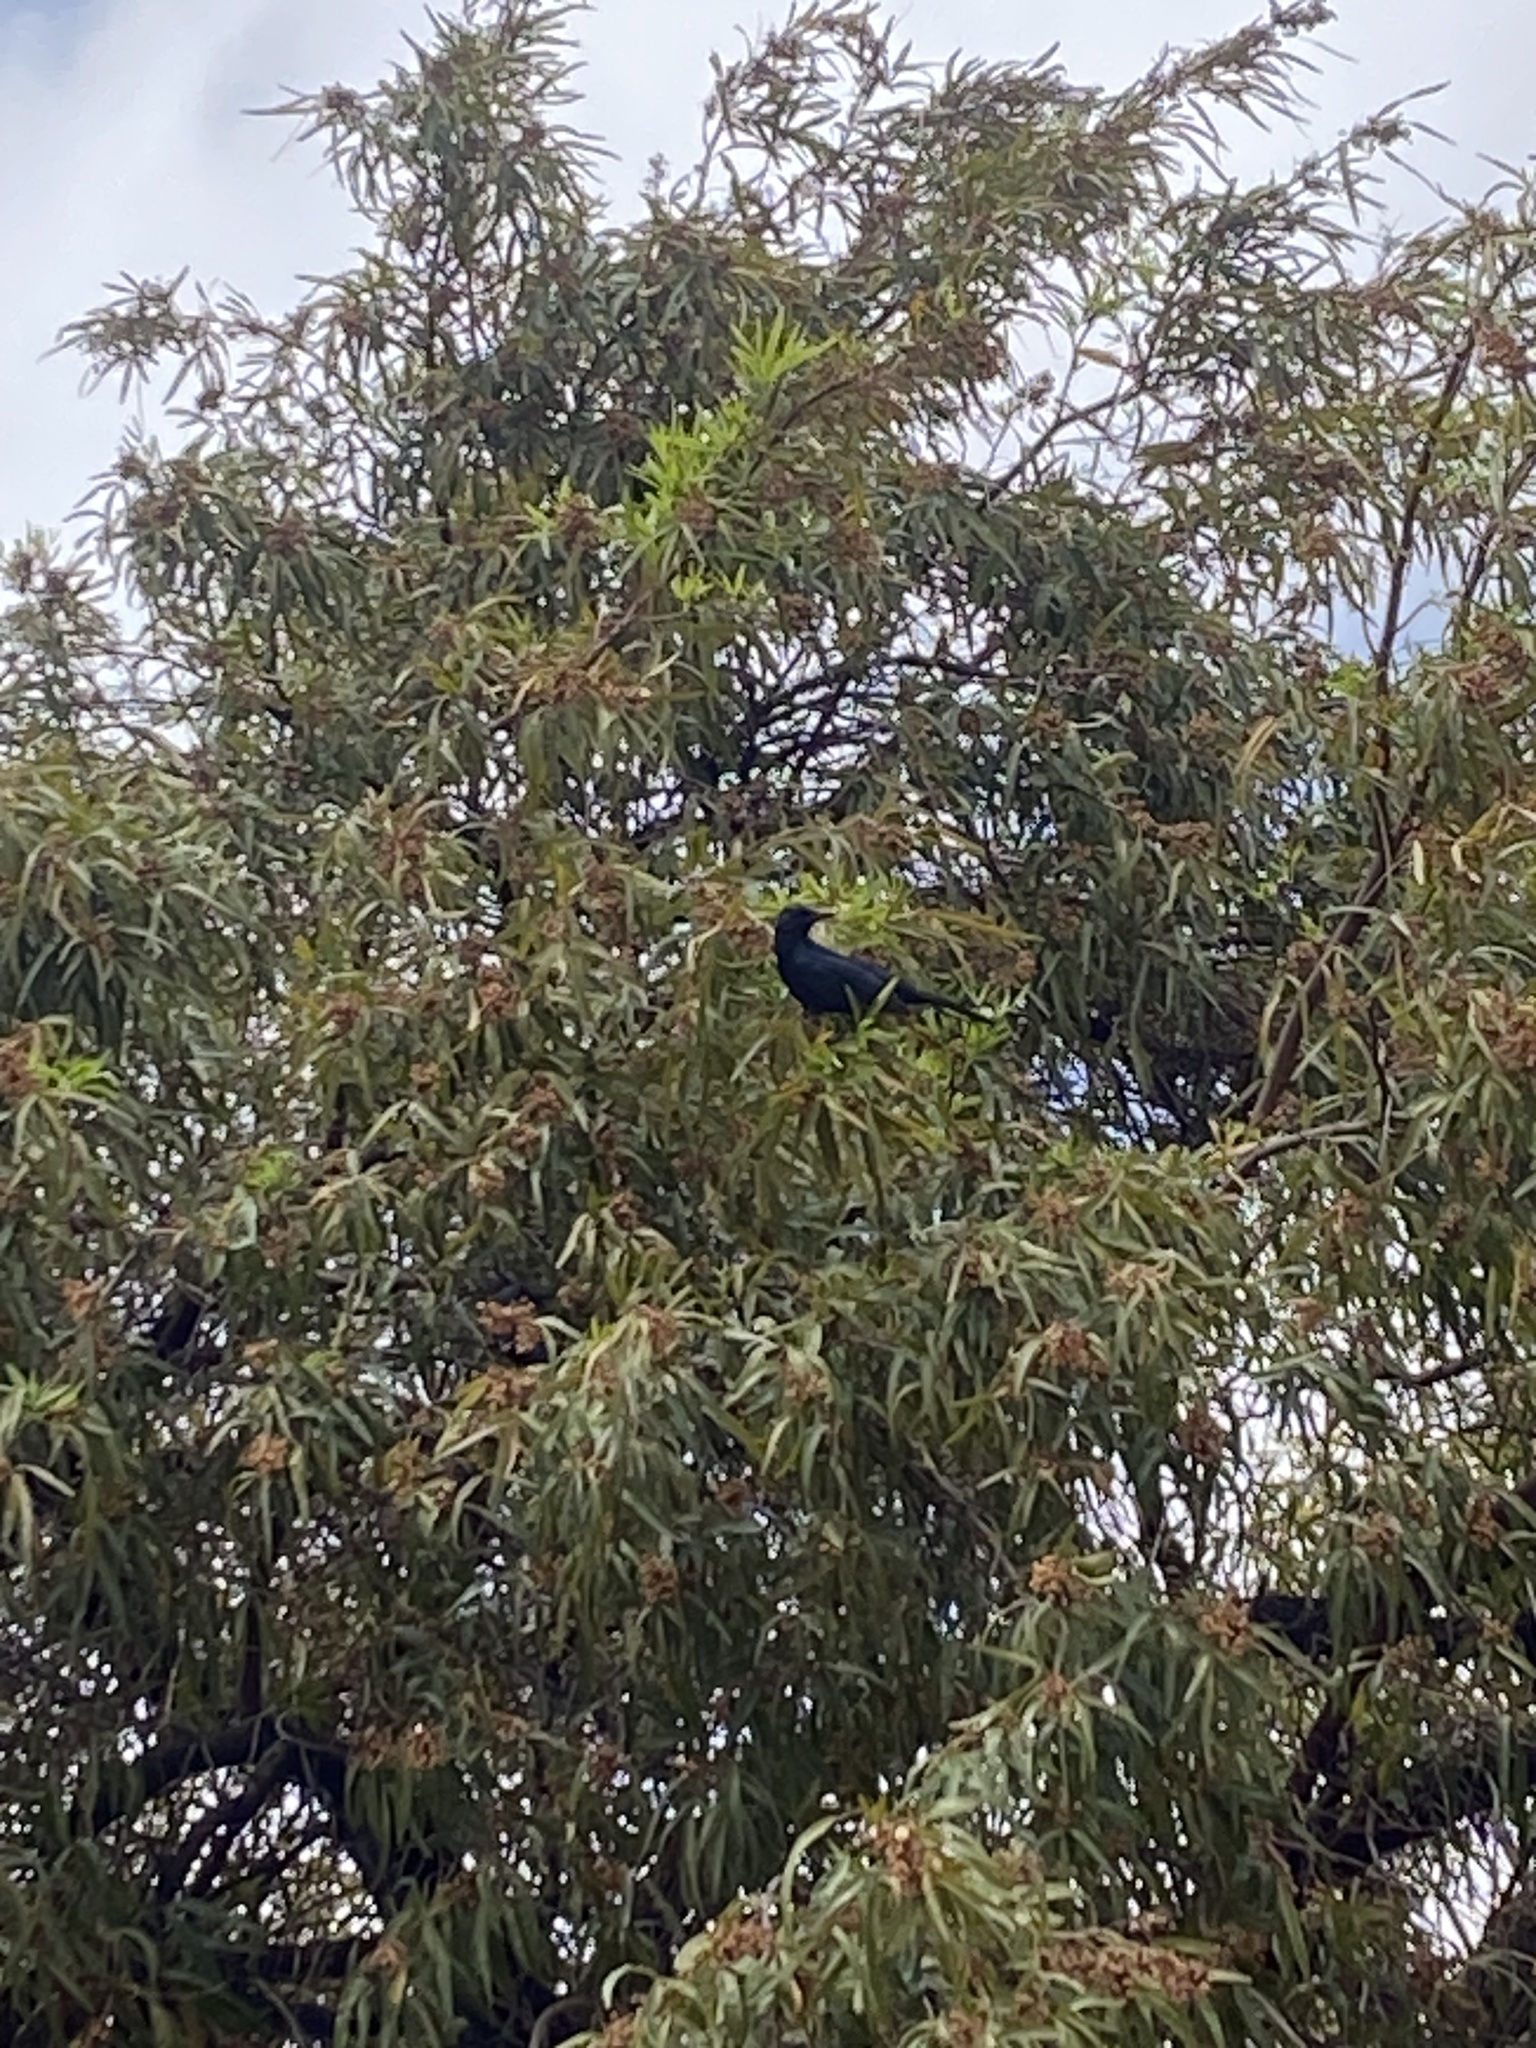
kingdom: Animalia
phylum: Chordata
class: Aves
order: Passeriformes
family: Sturnidae
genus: Onychognathus
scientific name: Onychognathus morio
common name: Red-winged starling
